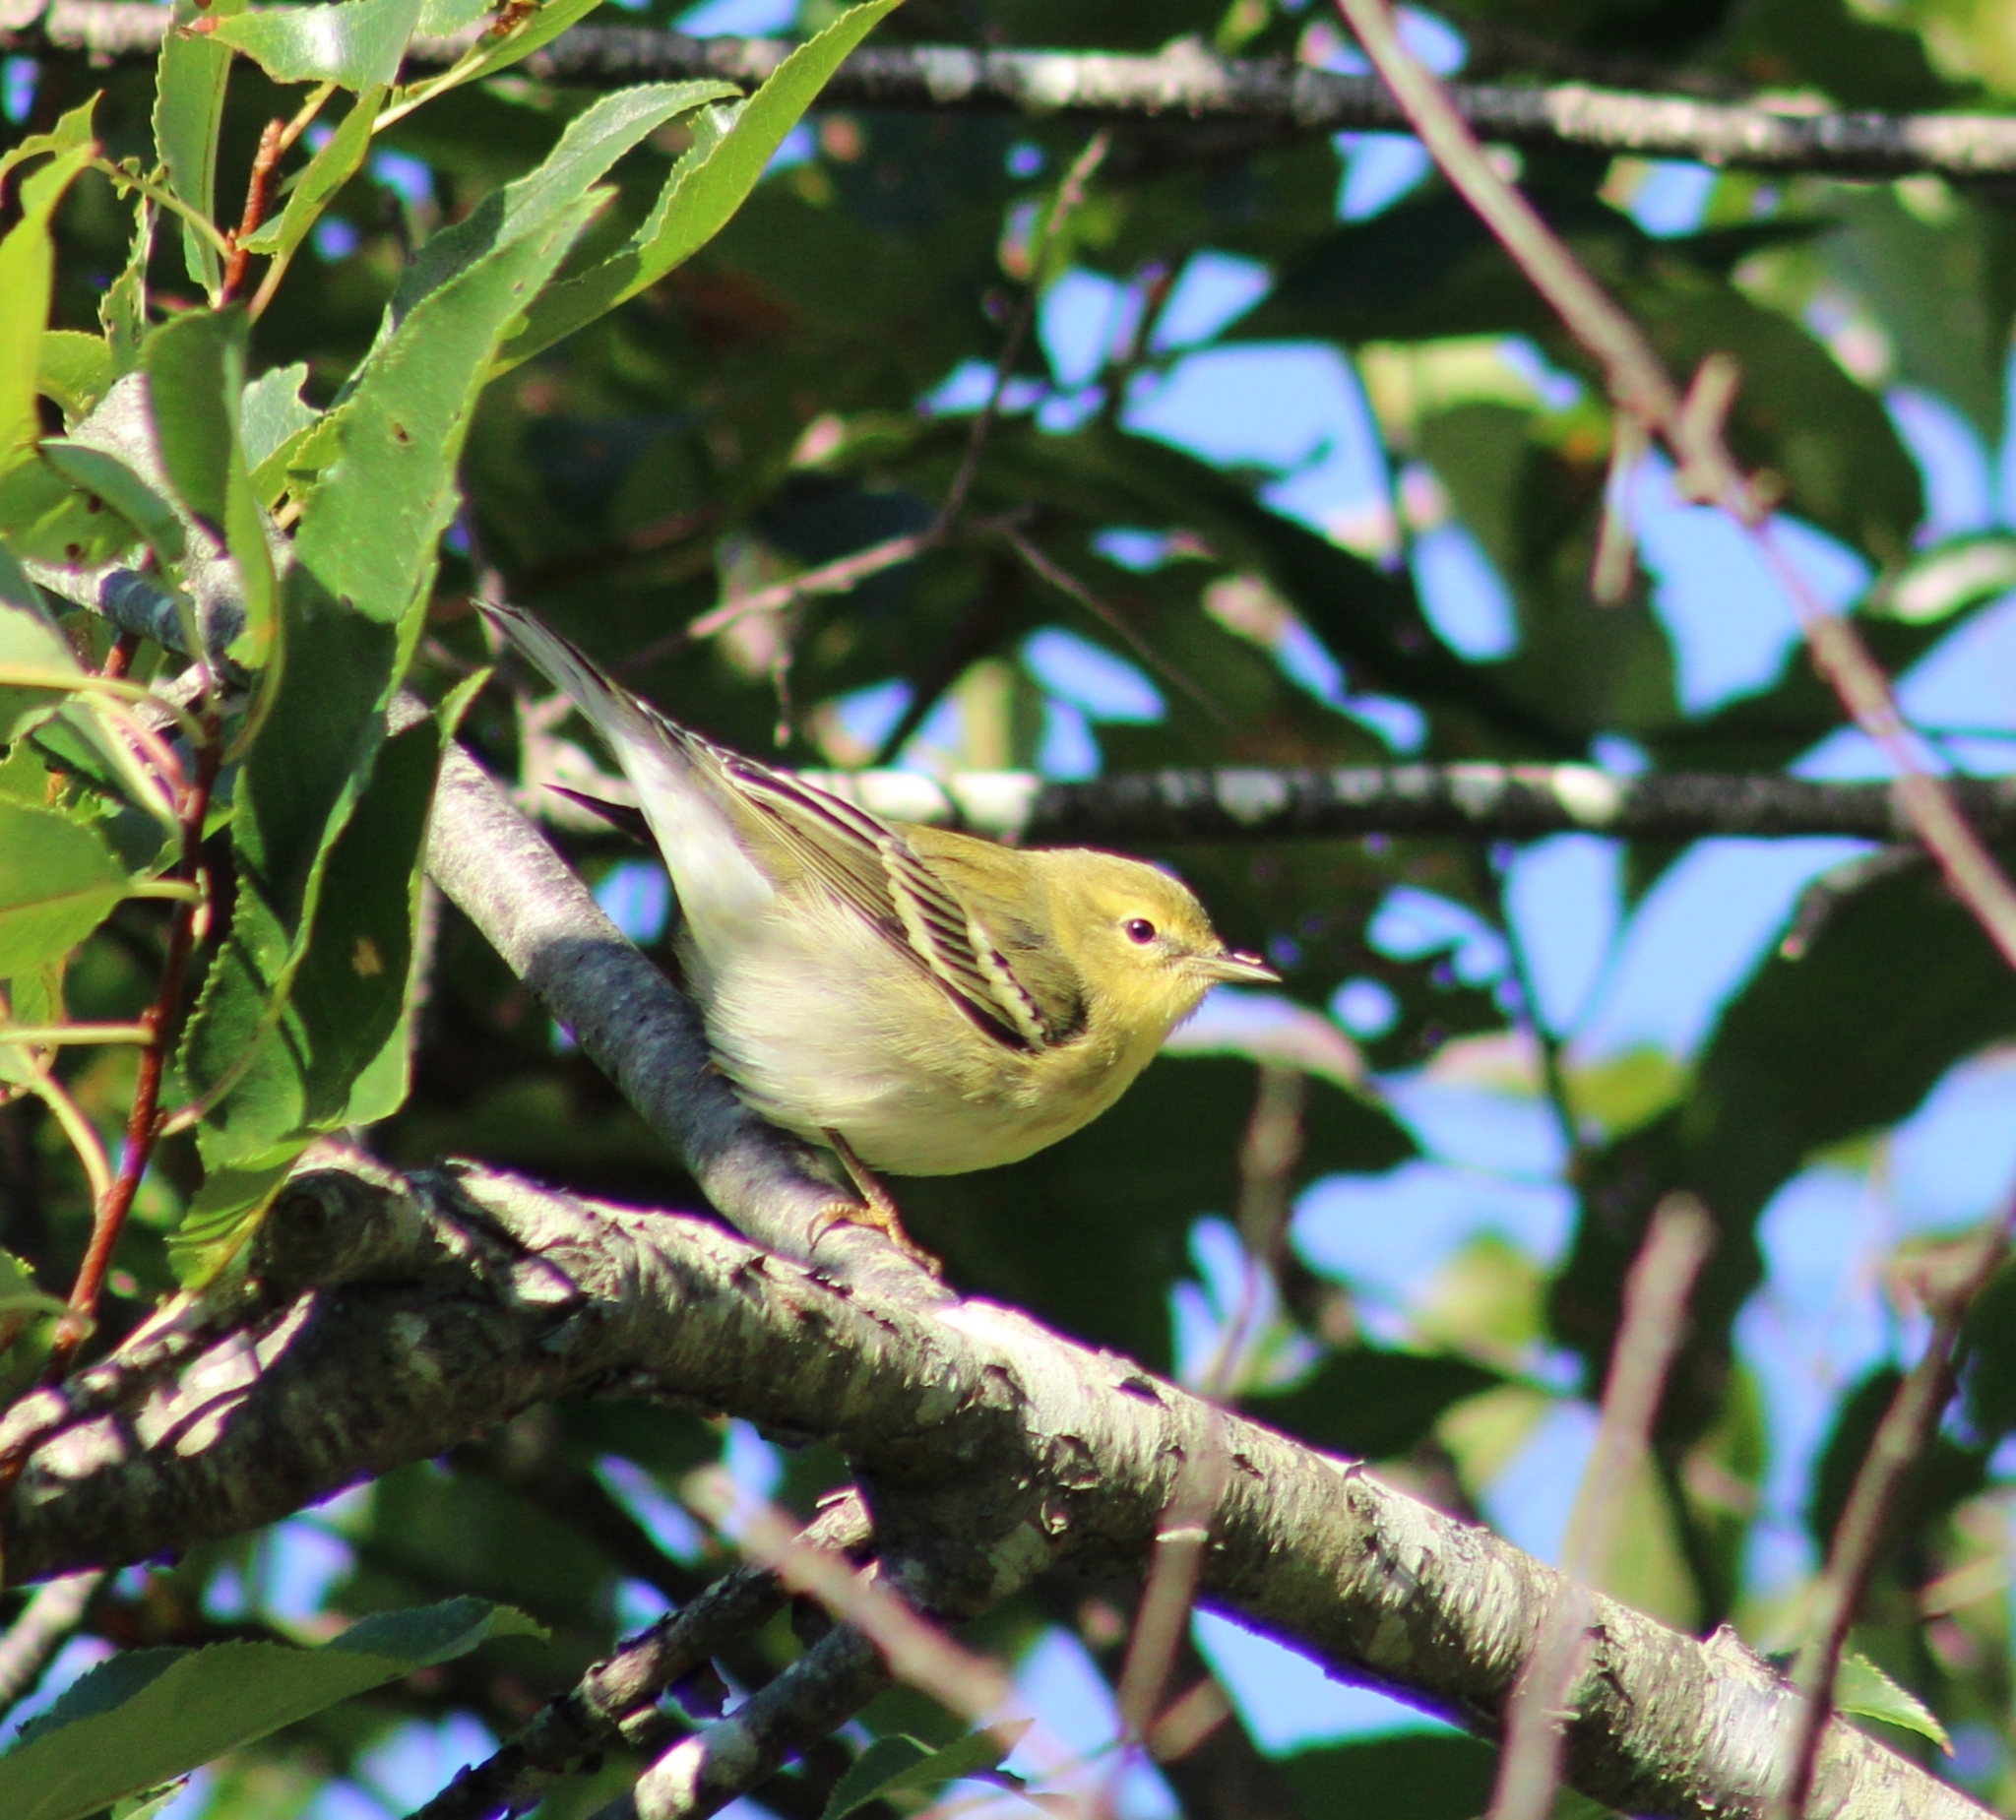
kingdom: Animalia
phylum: Chordata
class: Aves
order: Passeriformes
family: Parulidae
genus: Setophaga
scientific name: Setophaga striata
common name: Blackpoll warbler
